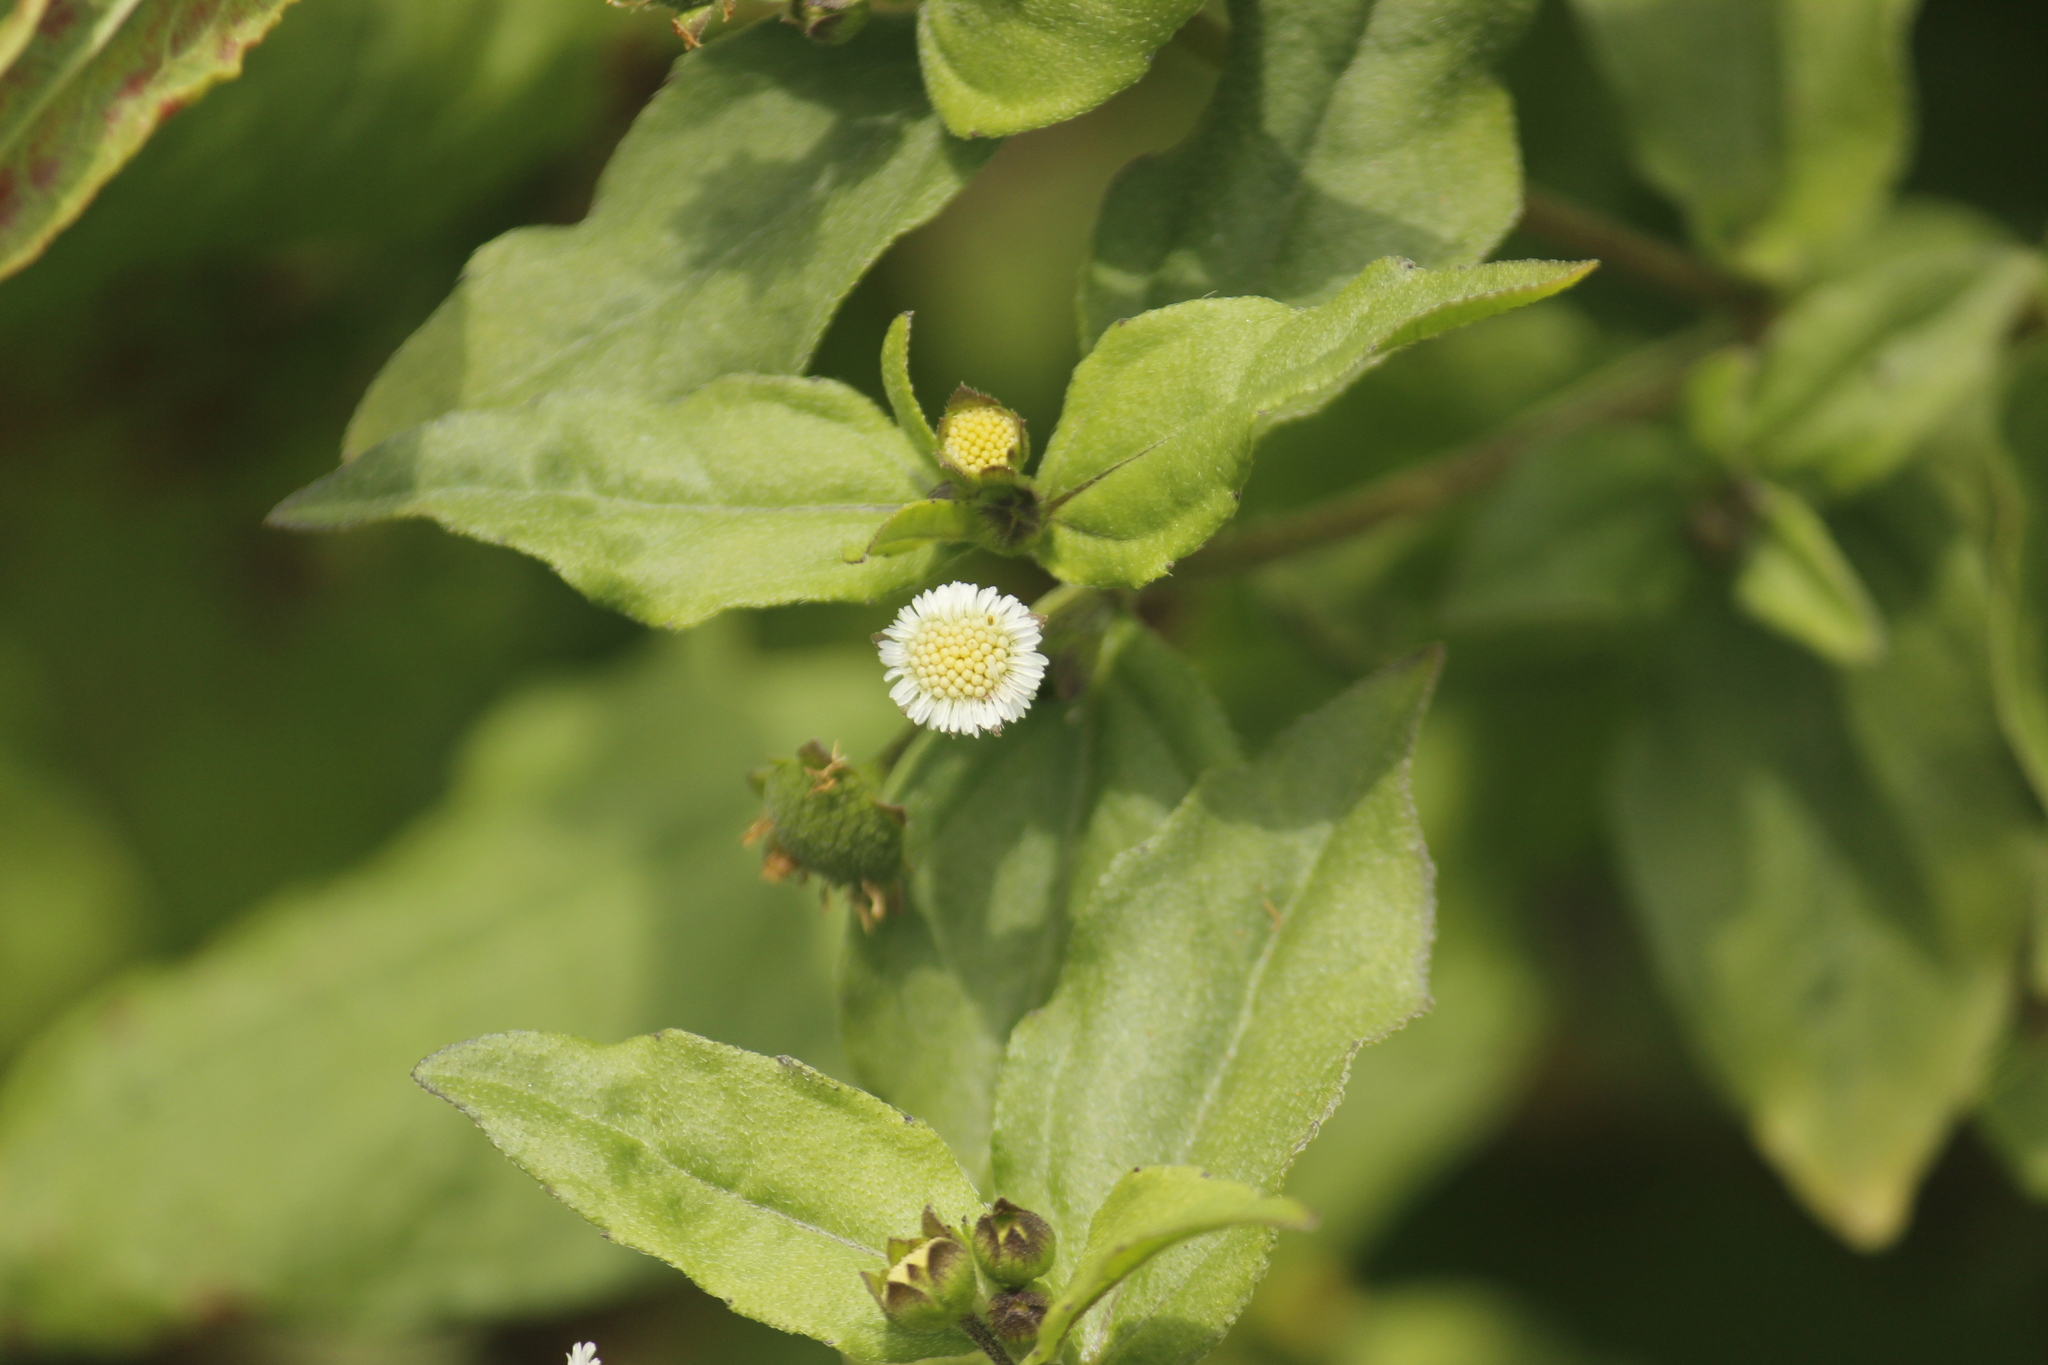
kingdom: Plantae
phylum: Tracheophyta
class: Magnoliopsida
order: Asterales
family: Asteraceae
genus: Eclipta
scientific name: Eclipta prostrata
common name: False daisy
